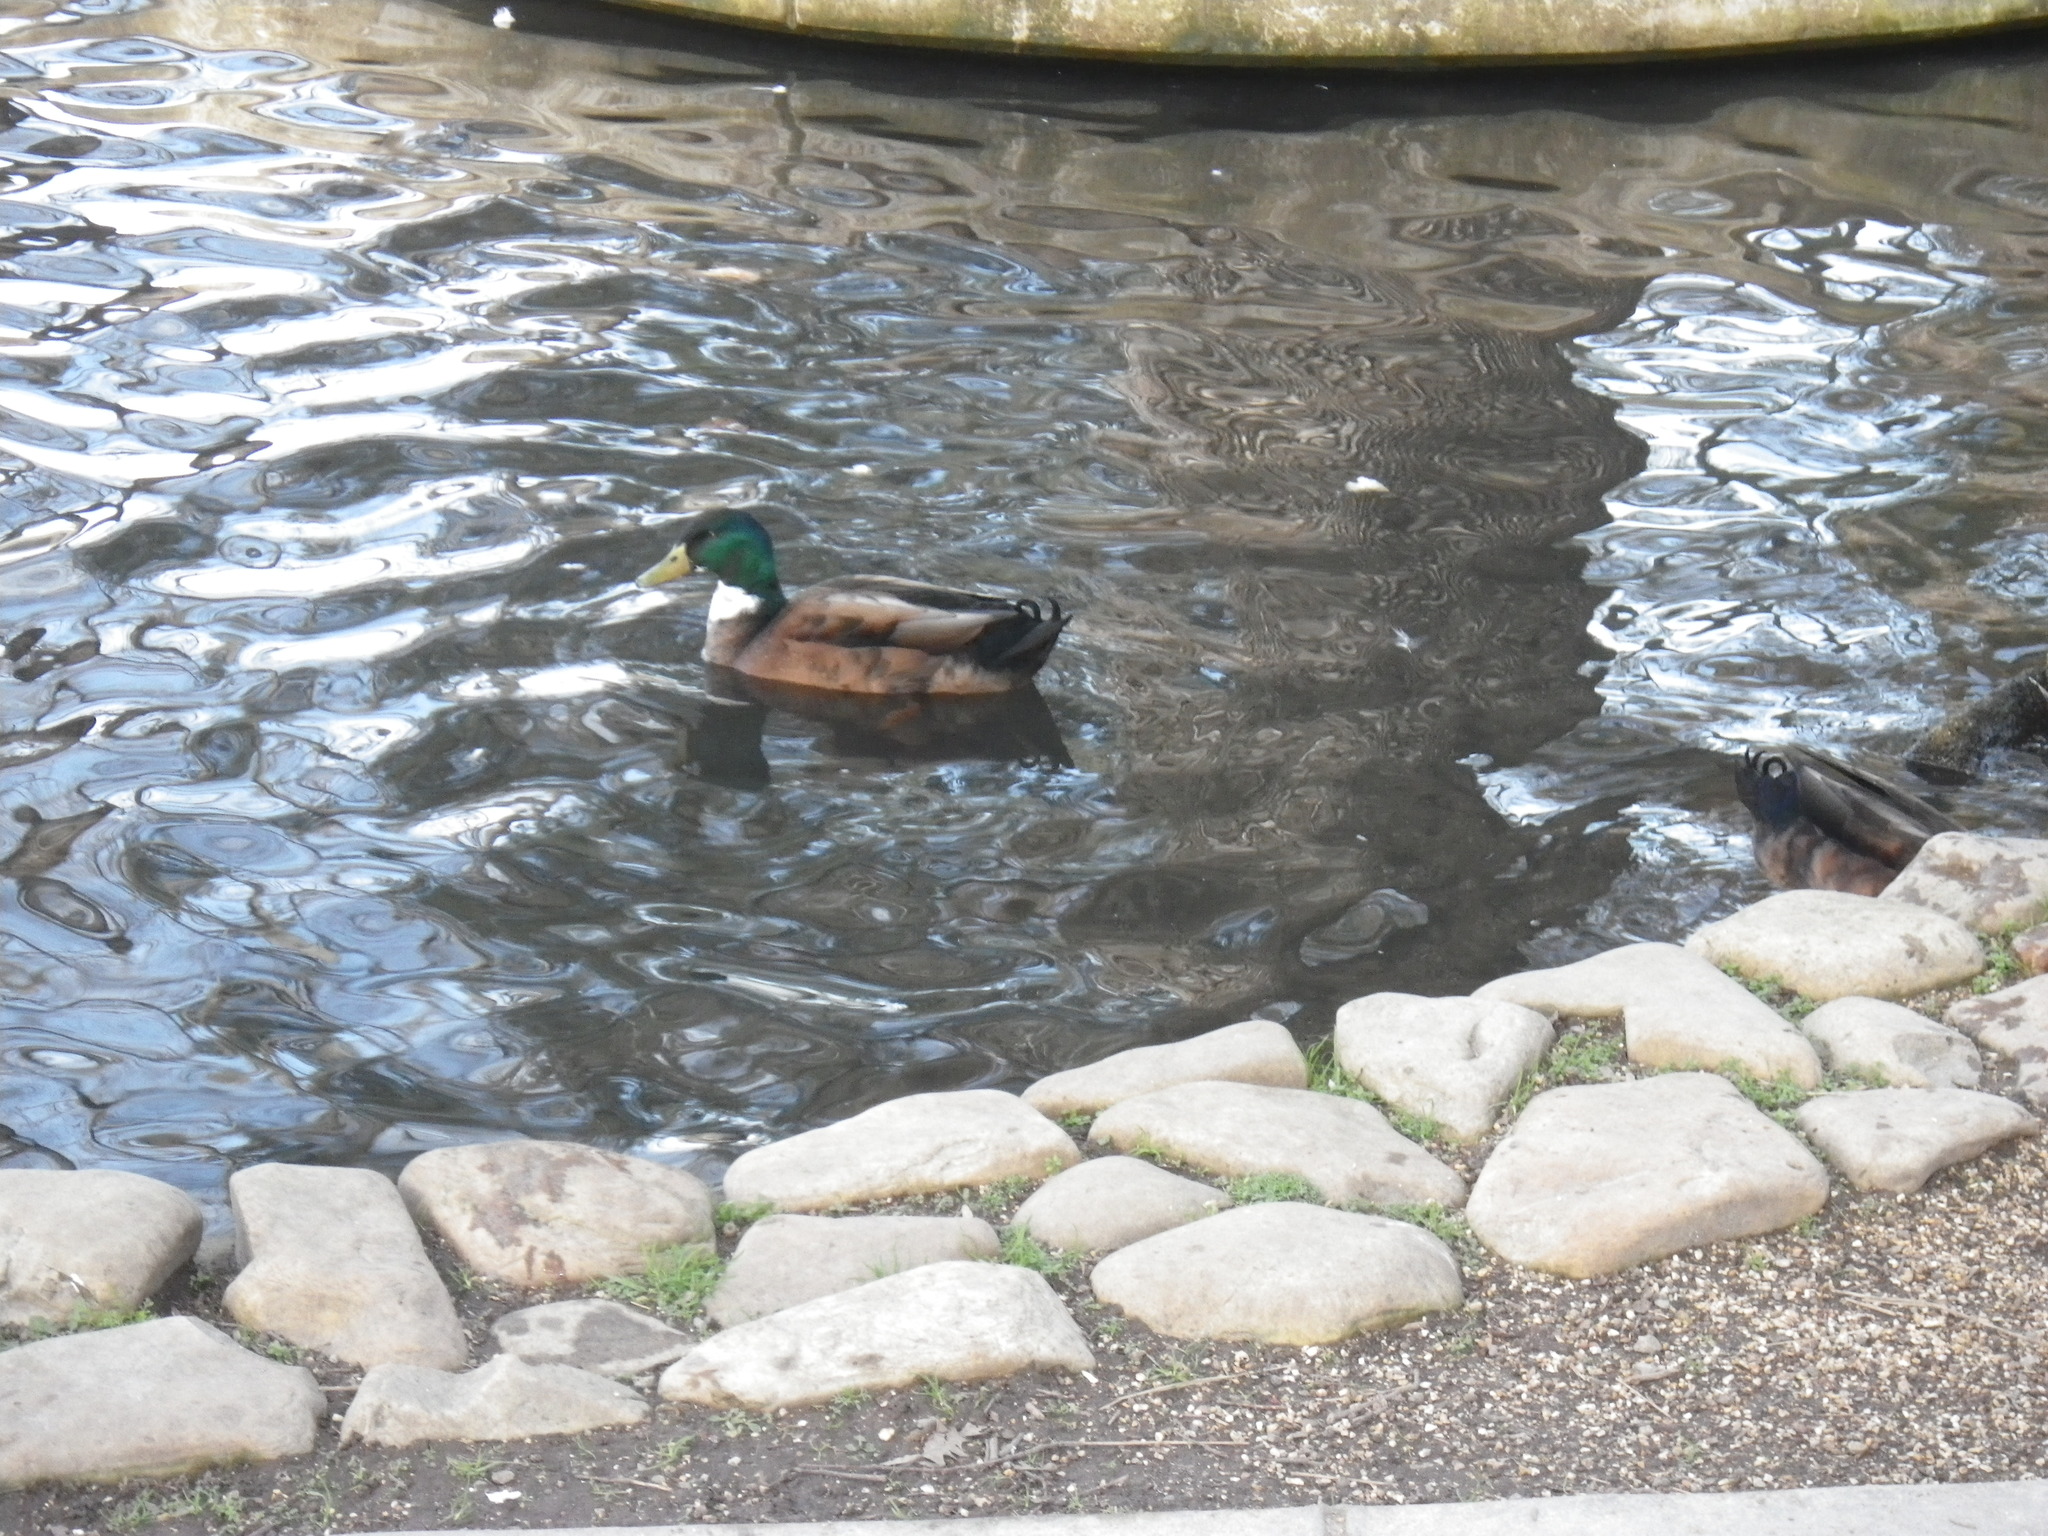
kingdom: Animalia
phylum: Chordata
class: Aves
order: Anseriformes
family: Anatidae
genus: Anas
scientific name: Anas platyrhynchos
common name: Mallard
